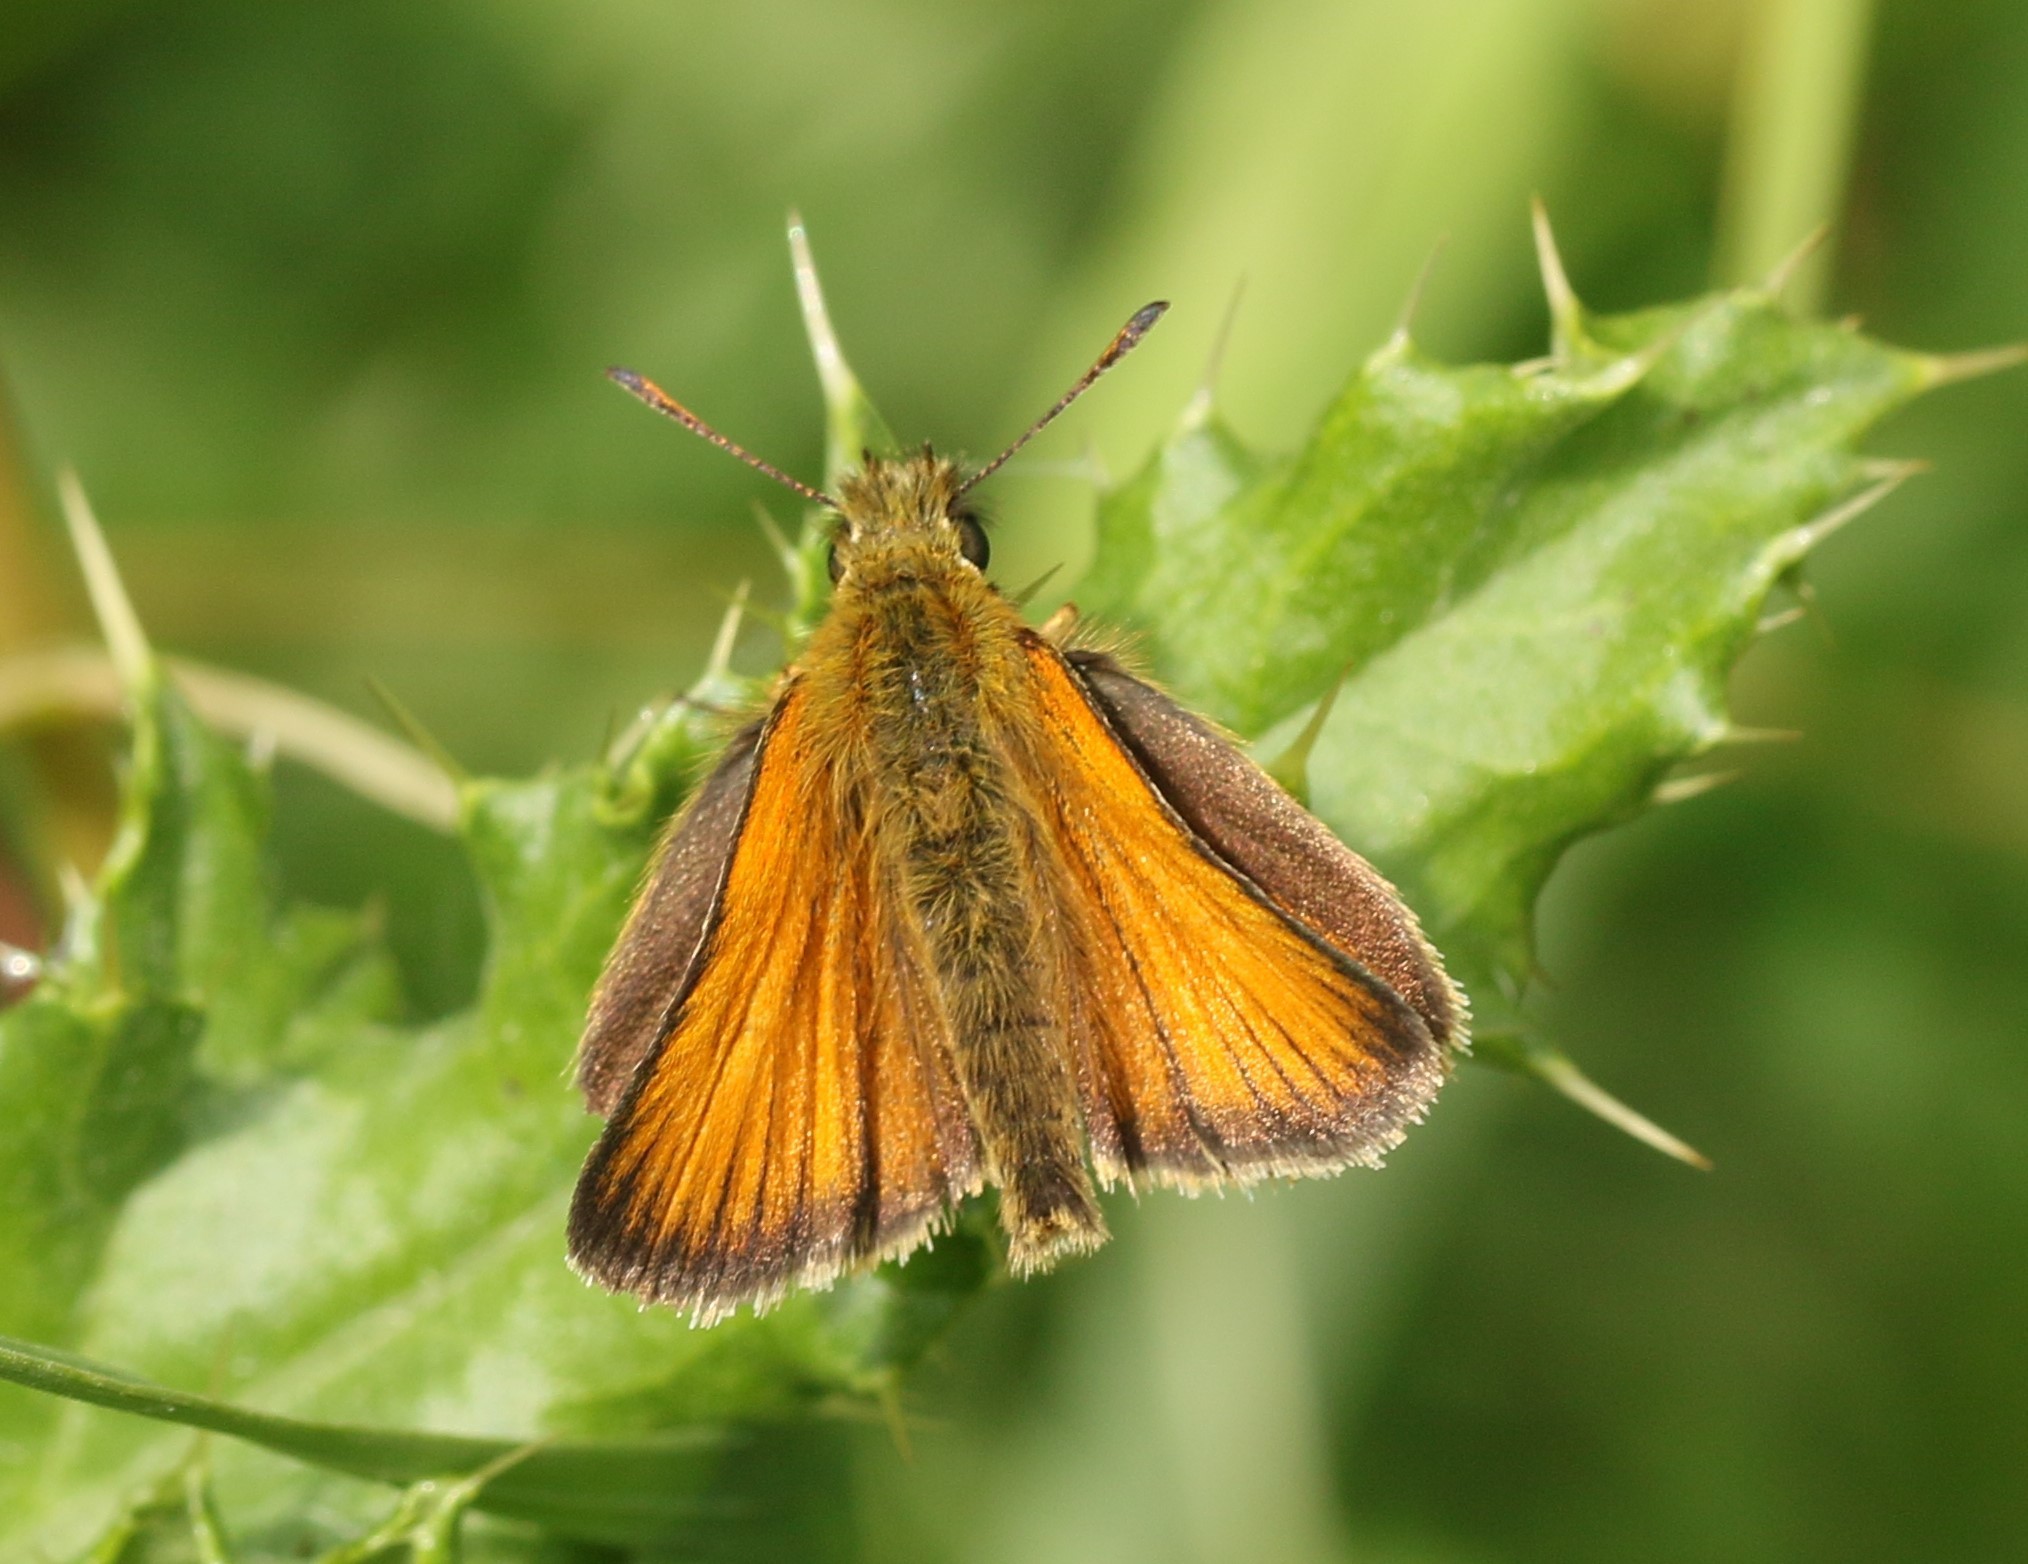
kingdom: Animalia
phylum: Arthropoda
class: Insecta
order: Lepidoptera
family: Hesperiidae
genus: Thymelicus
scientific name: Thymelicus lineola
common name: Essex skipper
